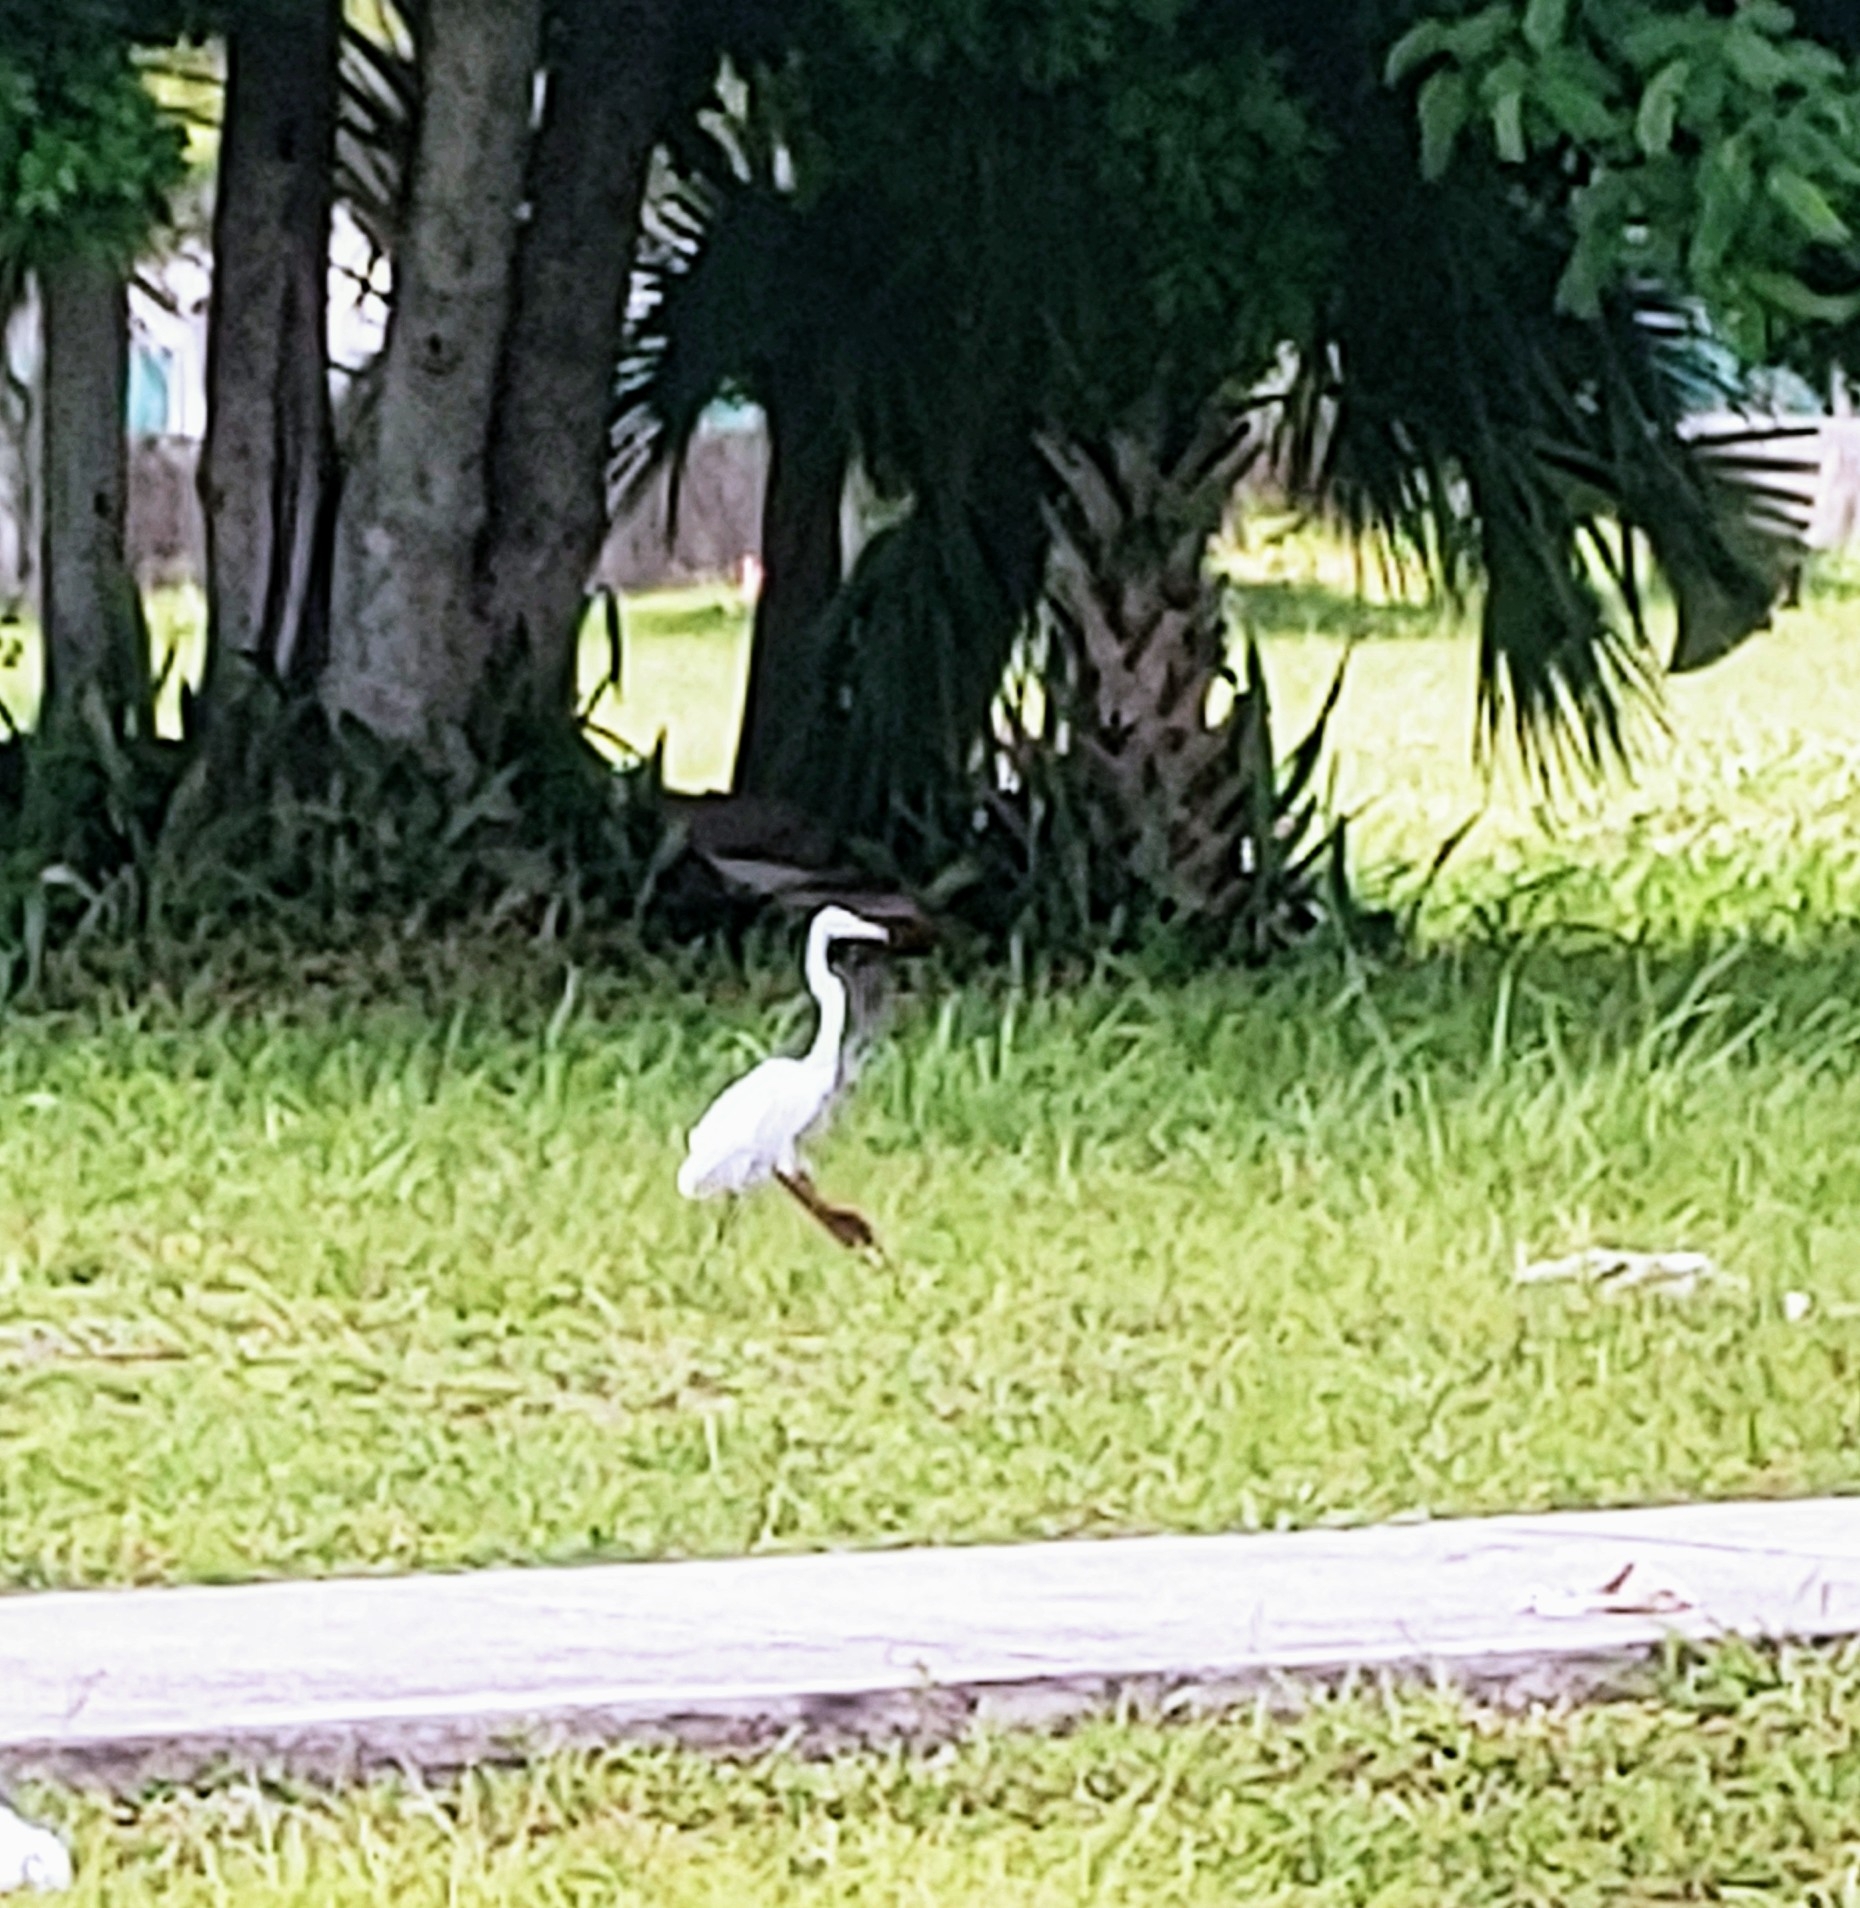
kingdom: Animalia
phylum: Chordata
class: Aves
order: Pelecaniformes
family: Ardeidae
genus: Ardea
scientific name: Ardea alba
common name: Great egret
